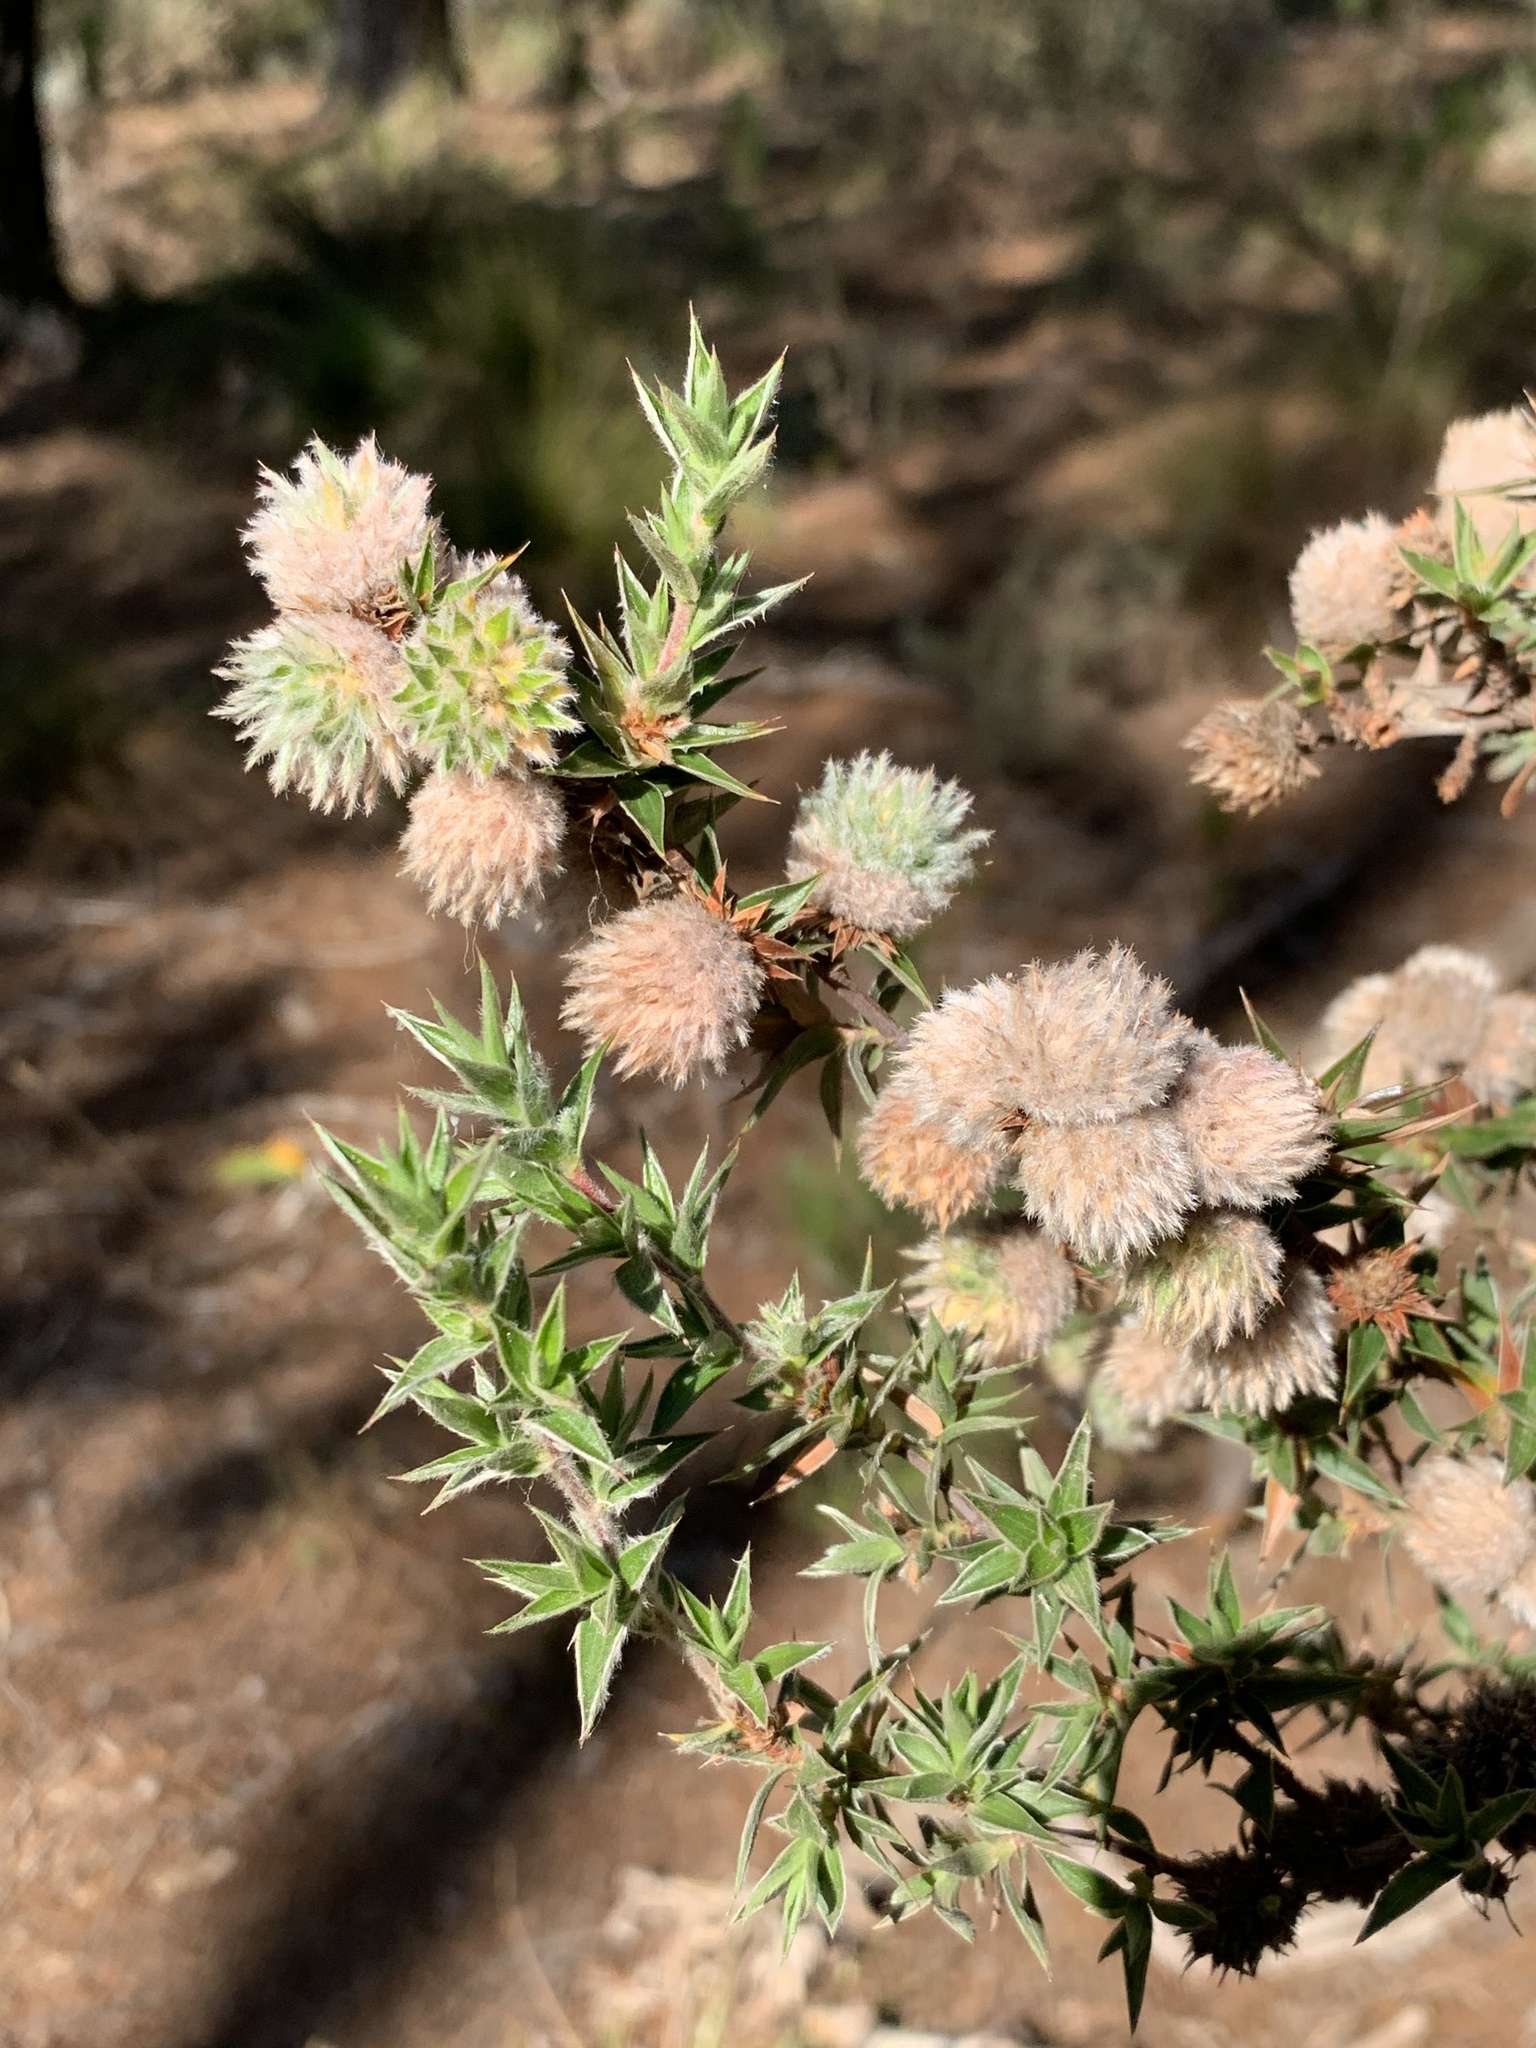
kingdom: Plantae
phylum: Tracheophyta
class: Magnoliopsida
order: Rosales
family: Rosaceae
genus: Cliffortia
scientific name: Cliffortia ruscifolia
